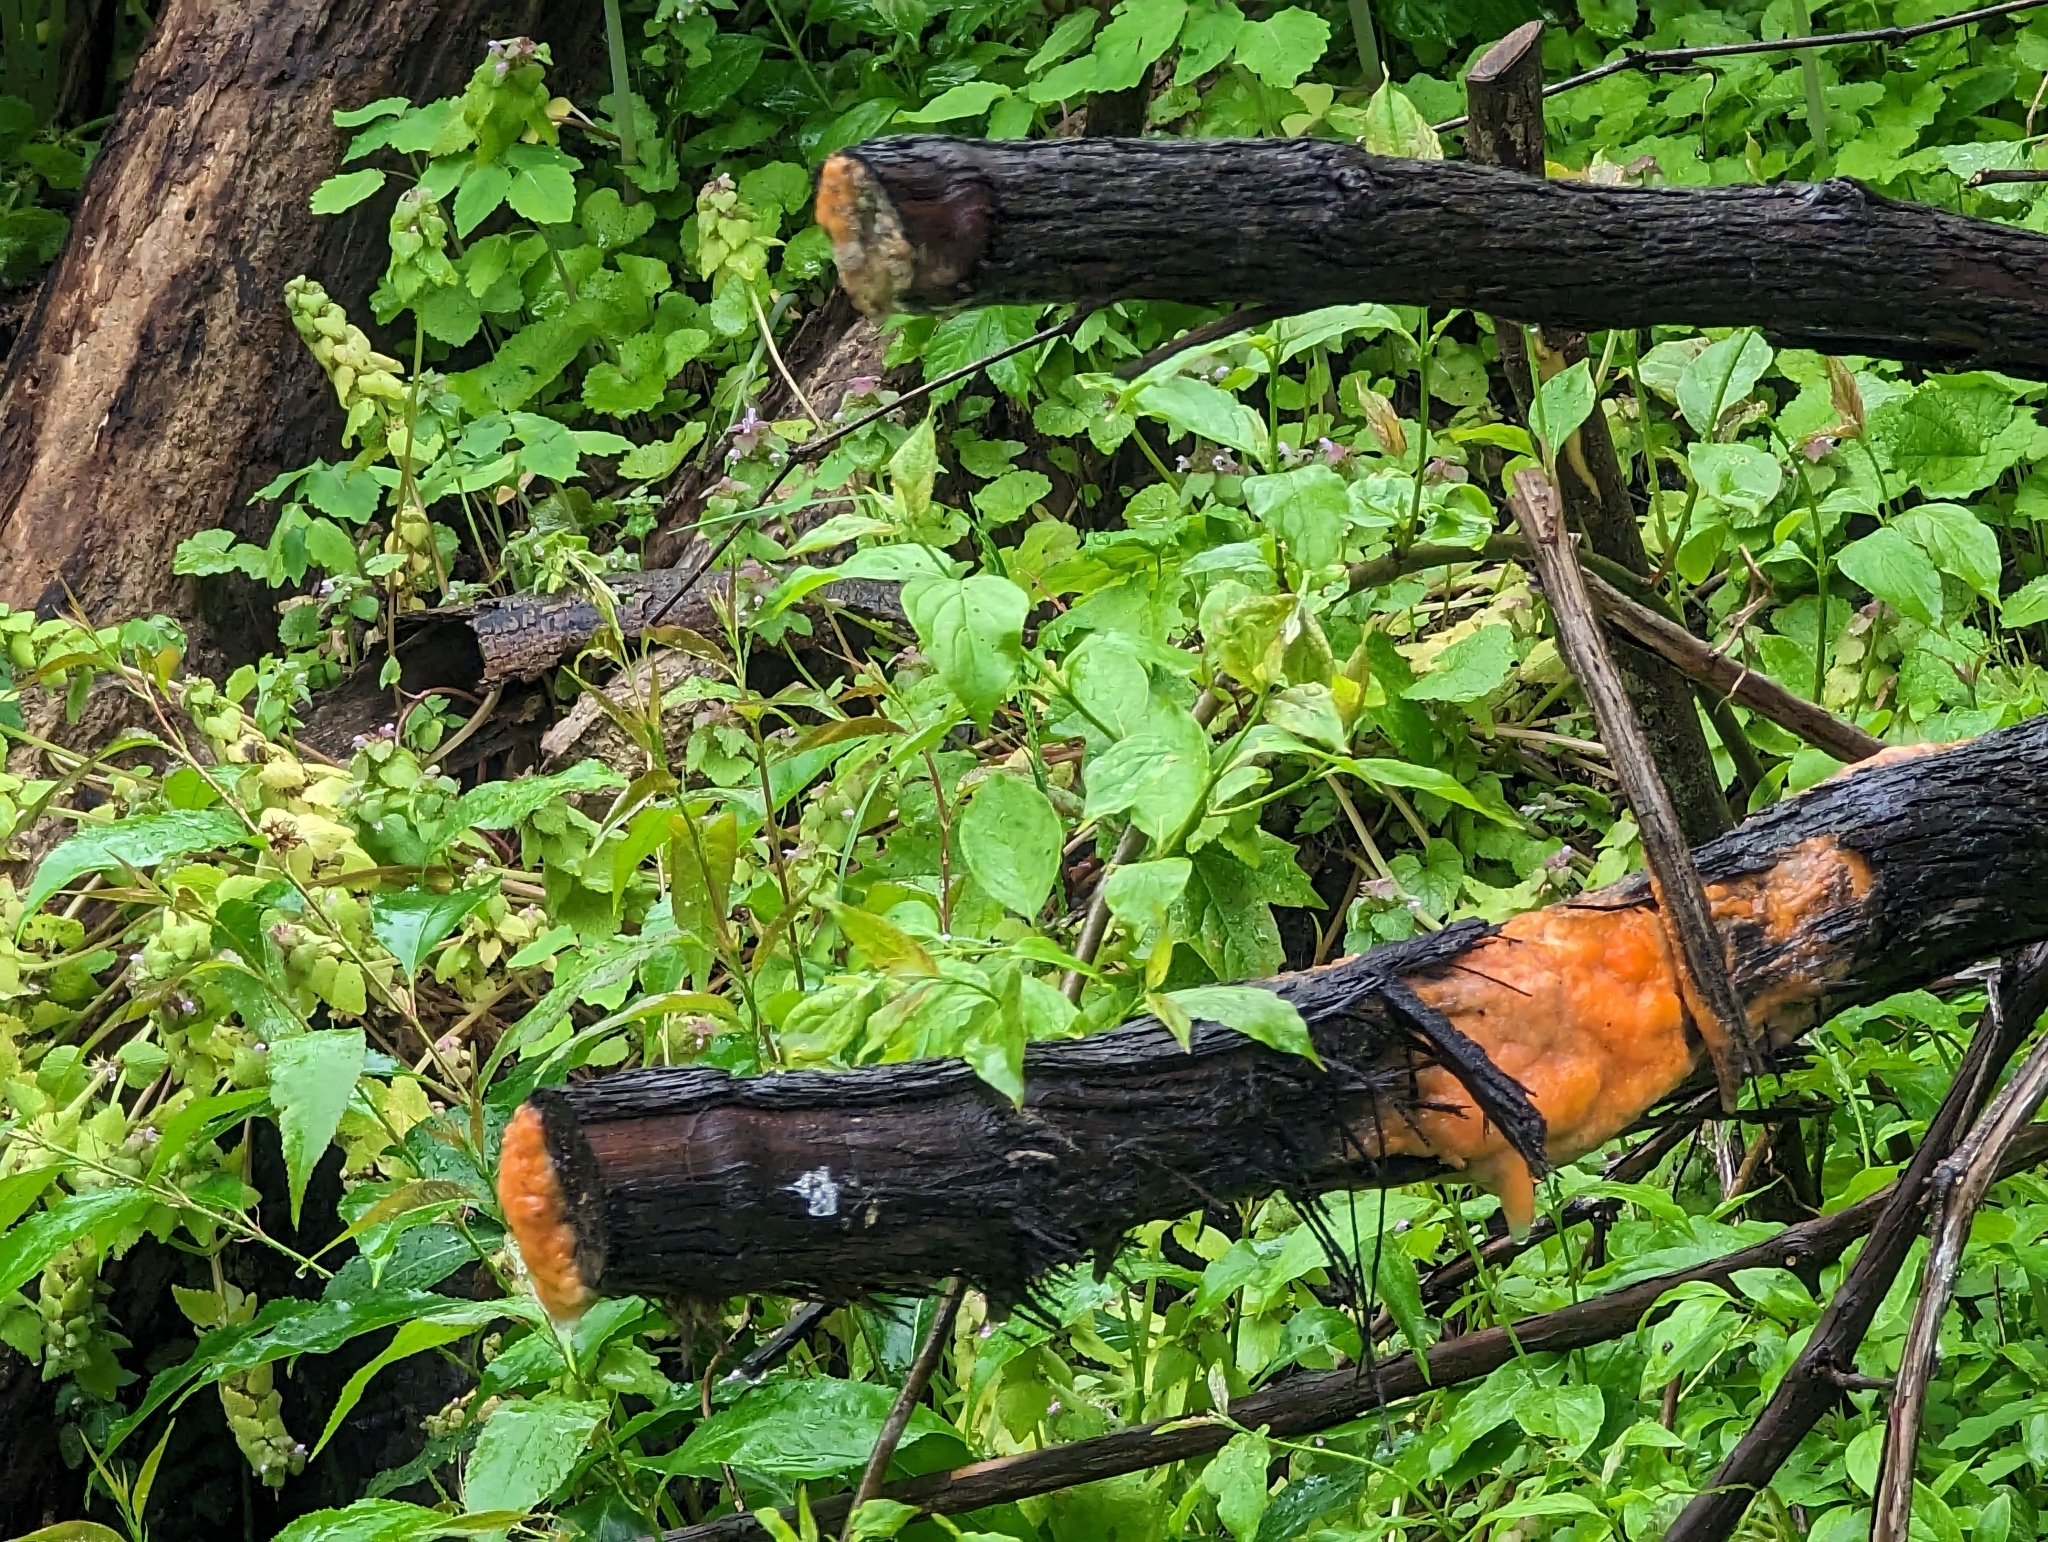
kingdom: Fungi
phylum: Ascomycota
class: Sordariomycetes
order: Hypocreales
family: Nectriaceae
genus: Fusicolla
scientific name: Fusicolla merismoides
